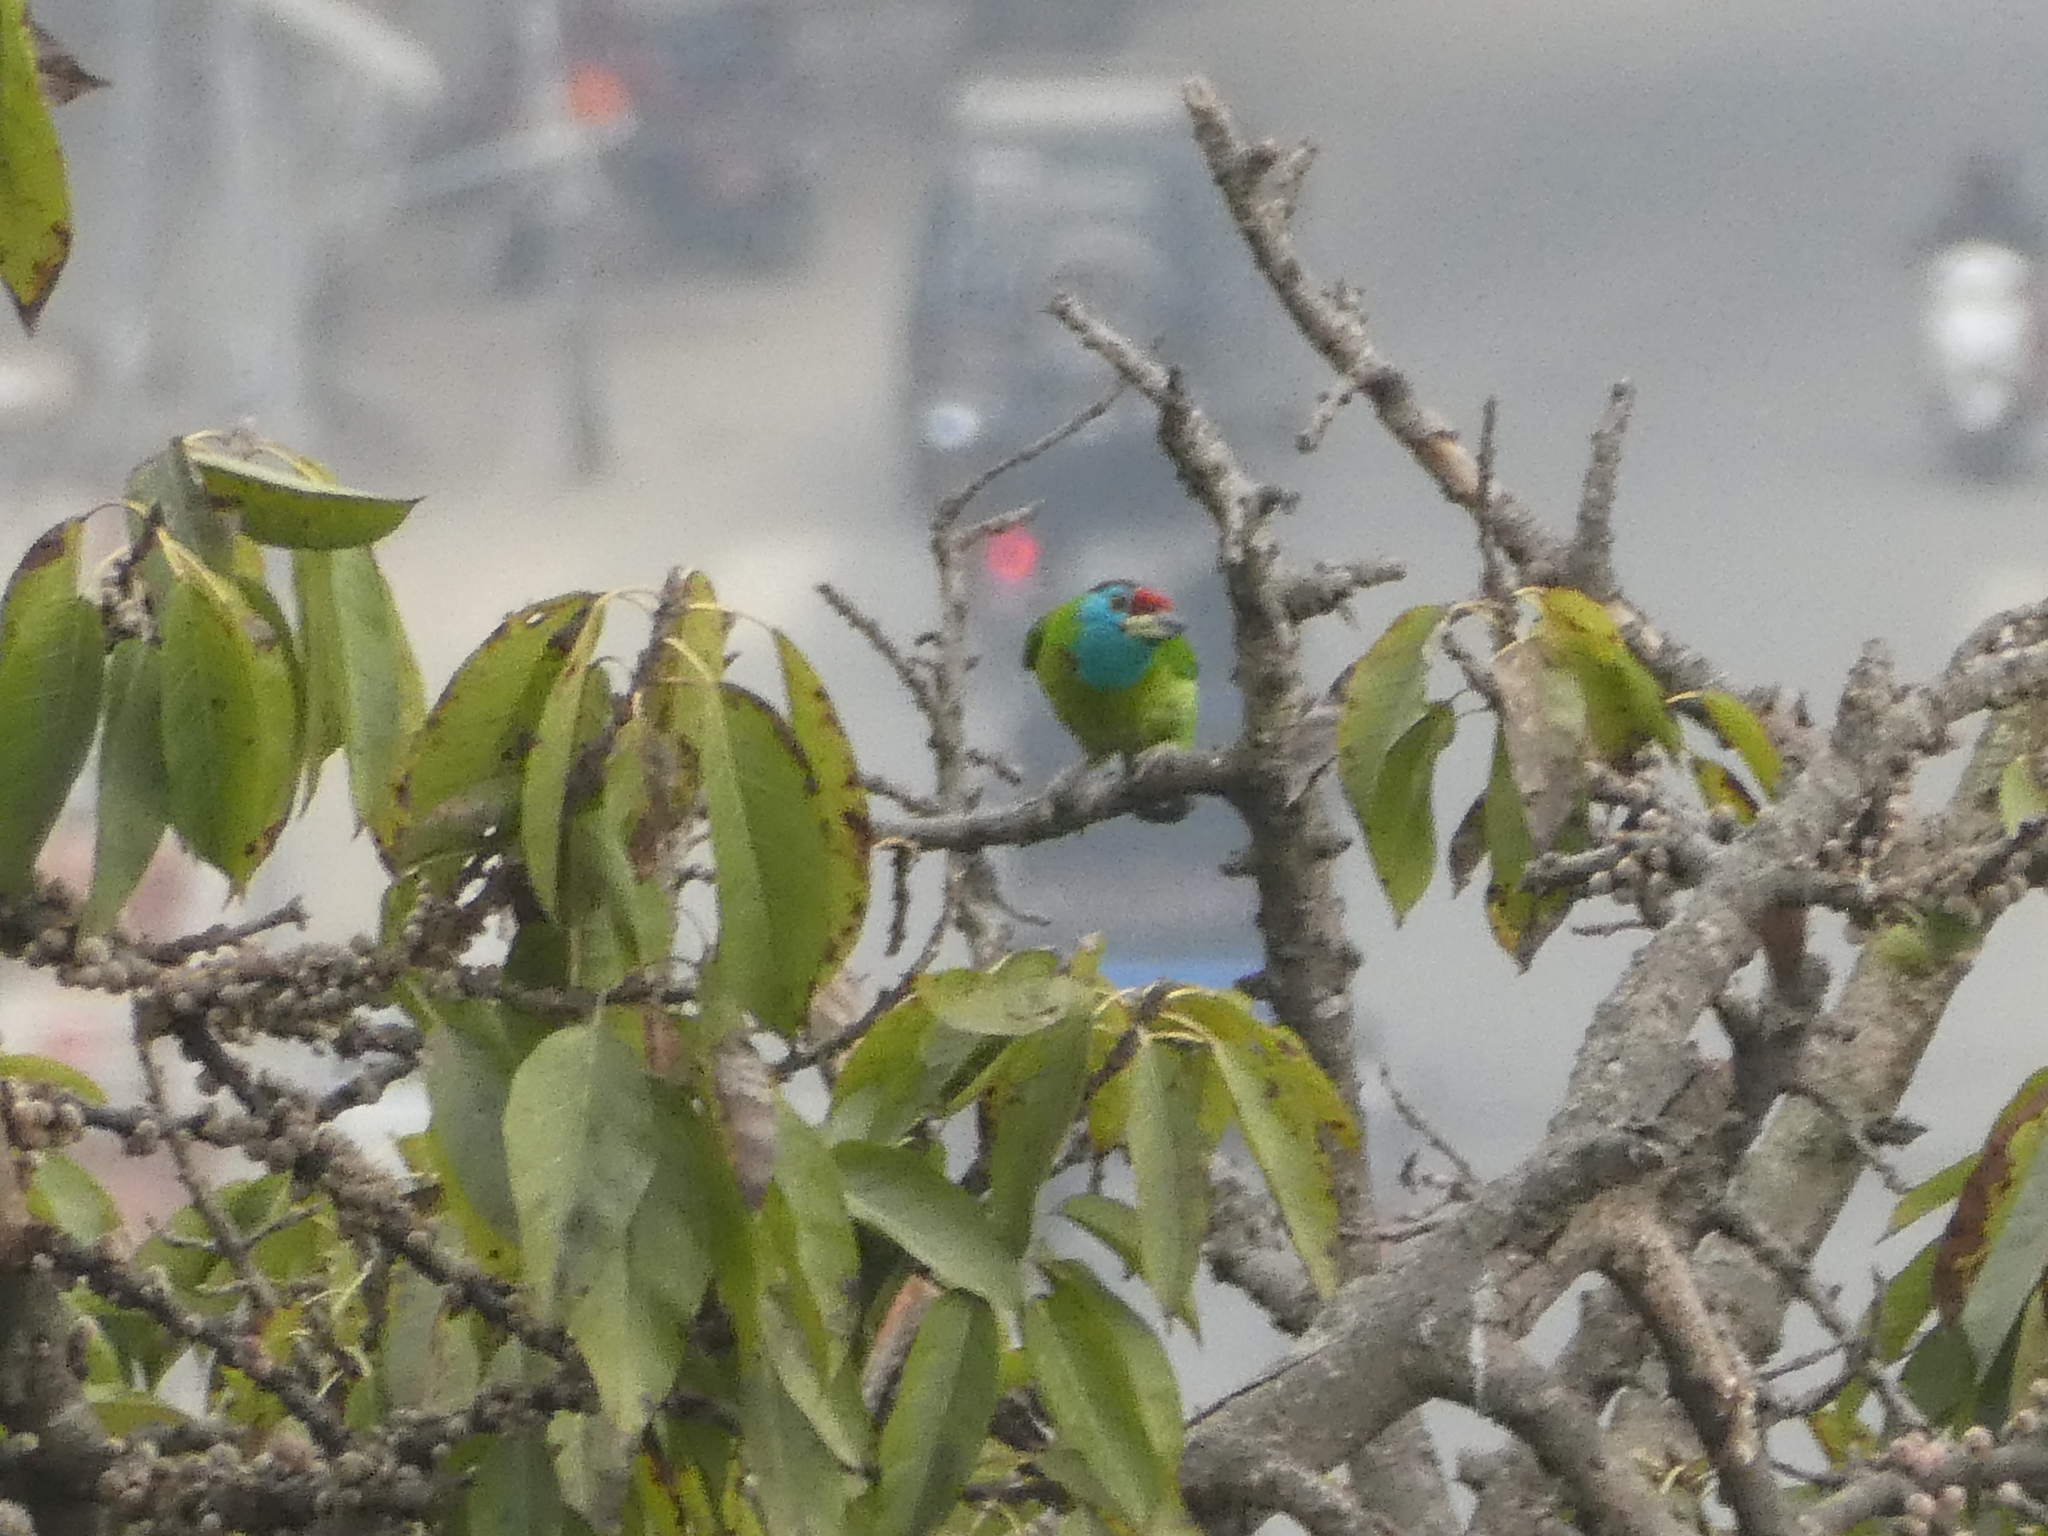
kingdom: Animalia
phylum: Chordata
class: Aves
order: Piciformes
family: Megalaimidae
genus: Psilopogon
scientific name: Psilopogon asiaticus
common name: Blue-throated barbet
